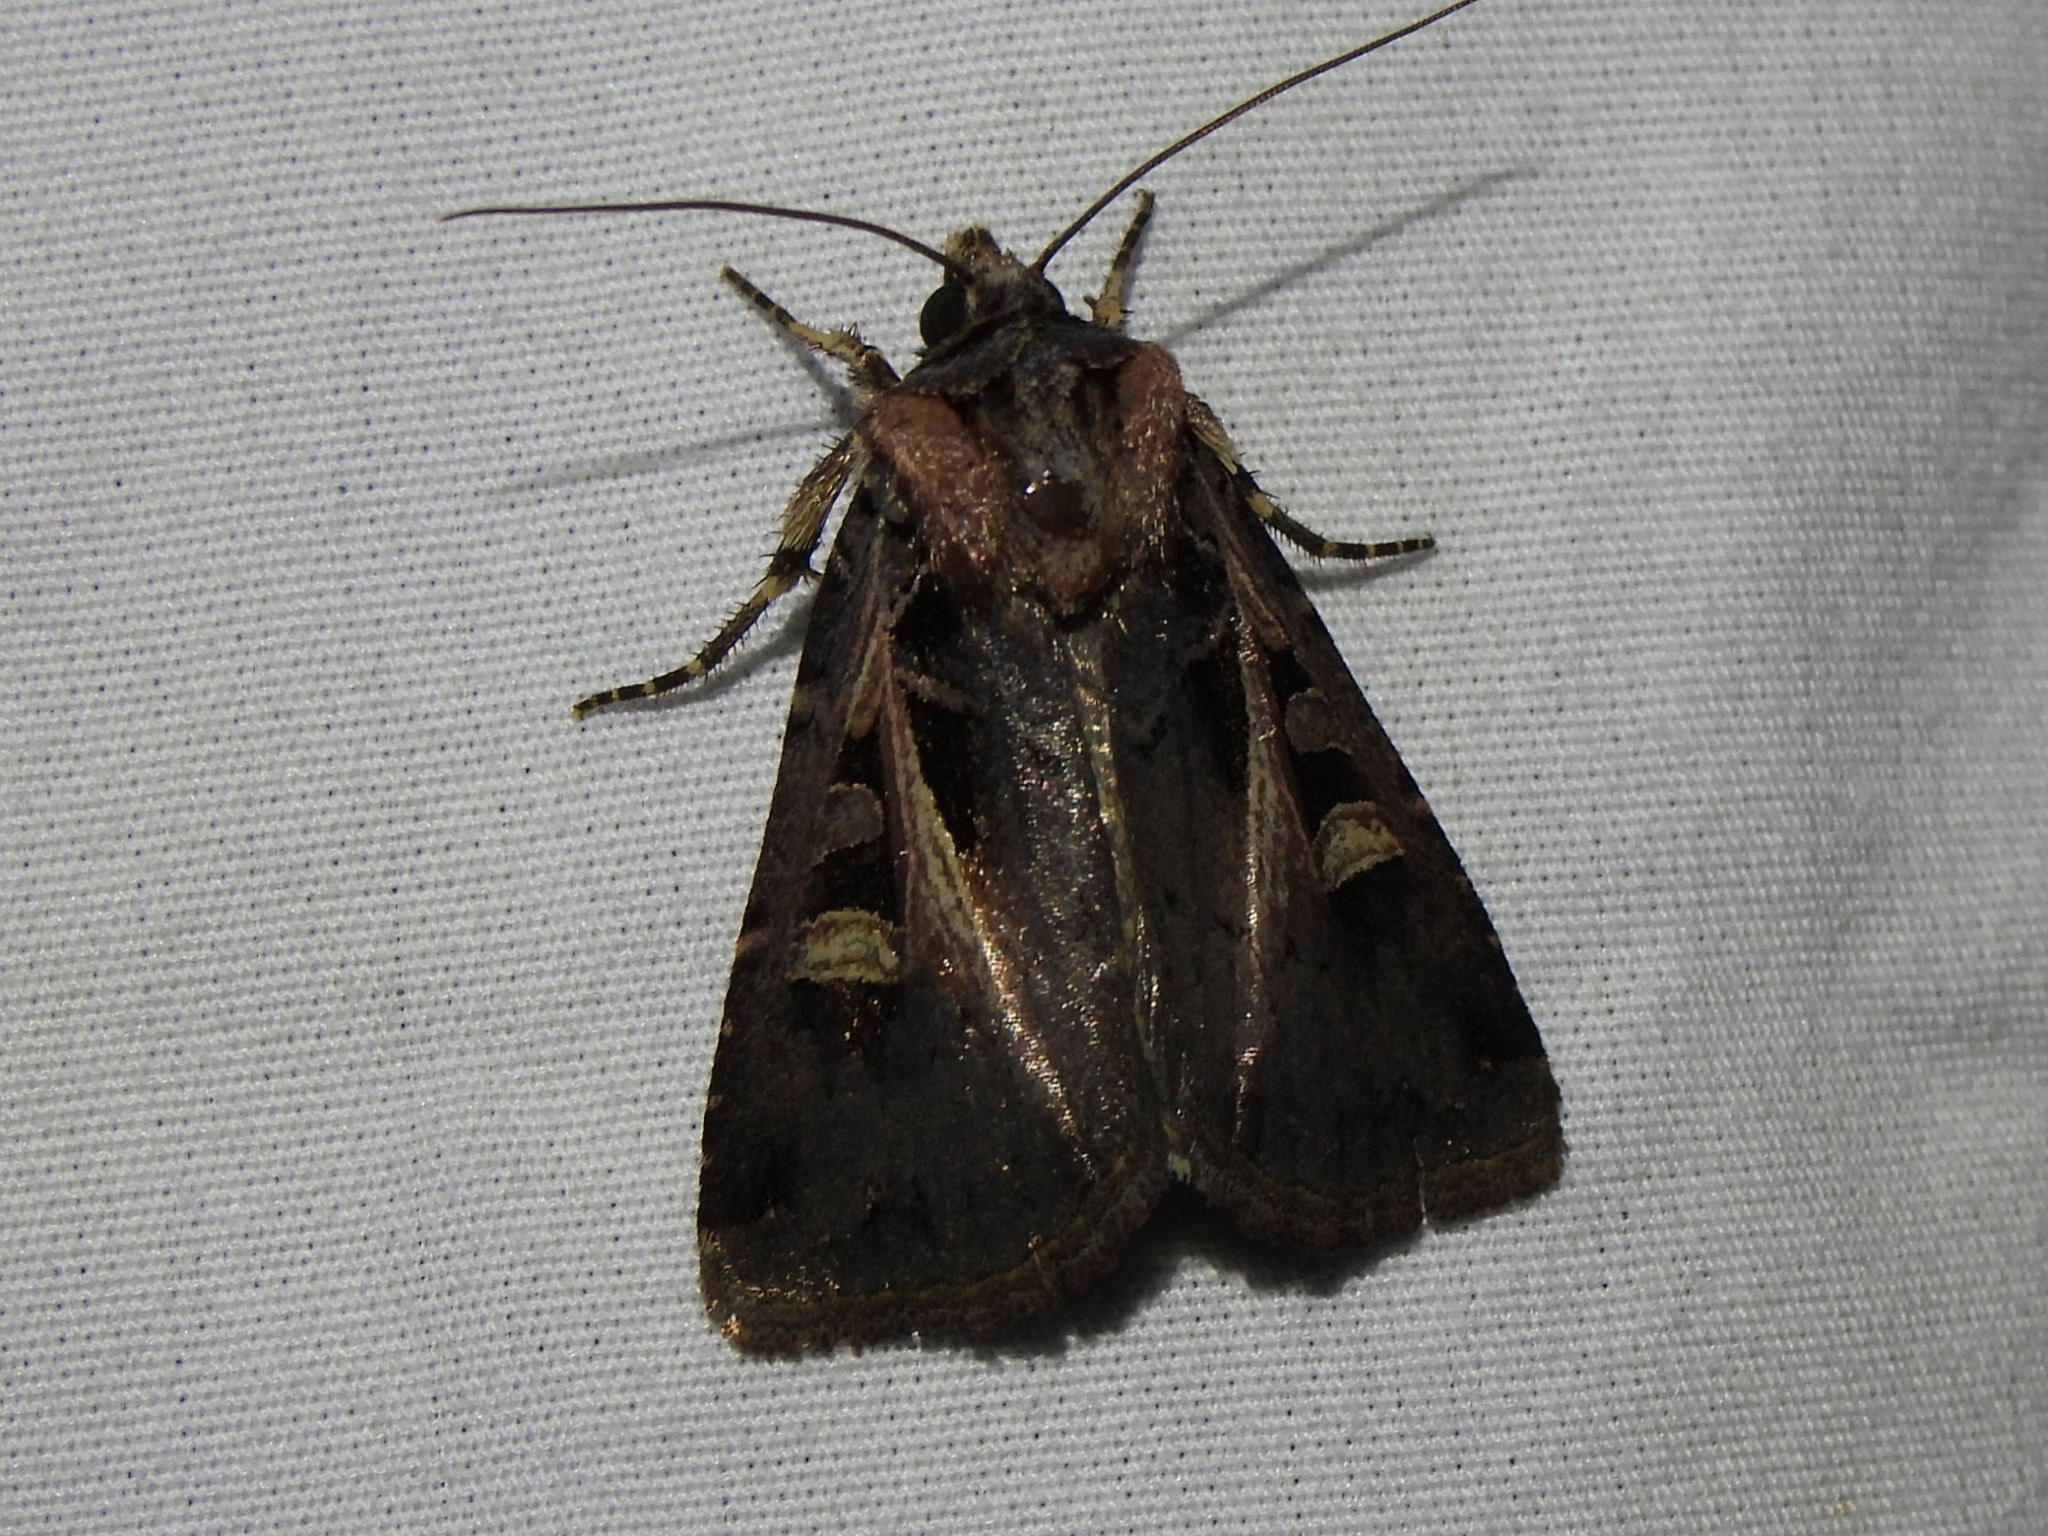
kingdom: Animalia
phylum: Arthropoda
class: Insecta
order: Lepidoptera
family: Noctuidae
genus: Feltia
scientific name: Feltia herilis
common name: Master's dart
